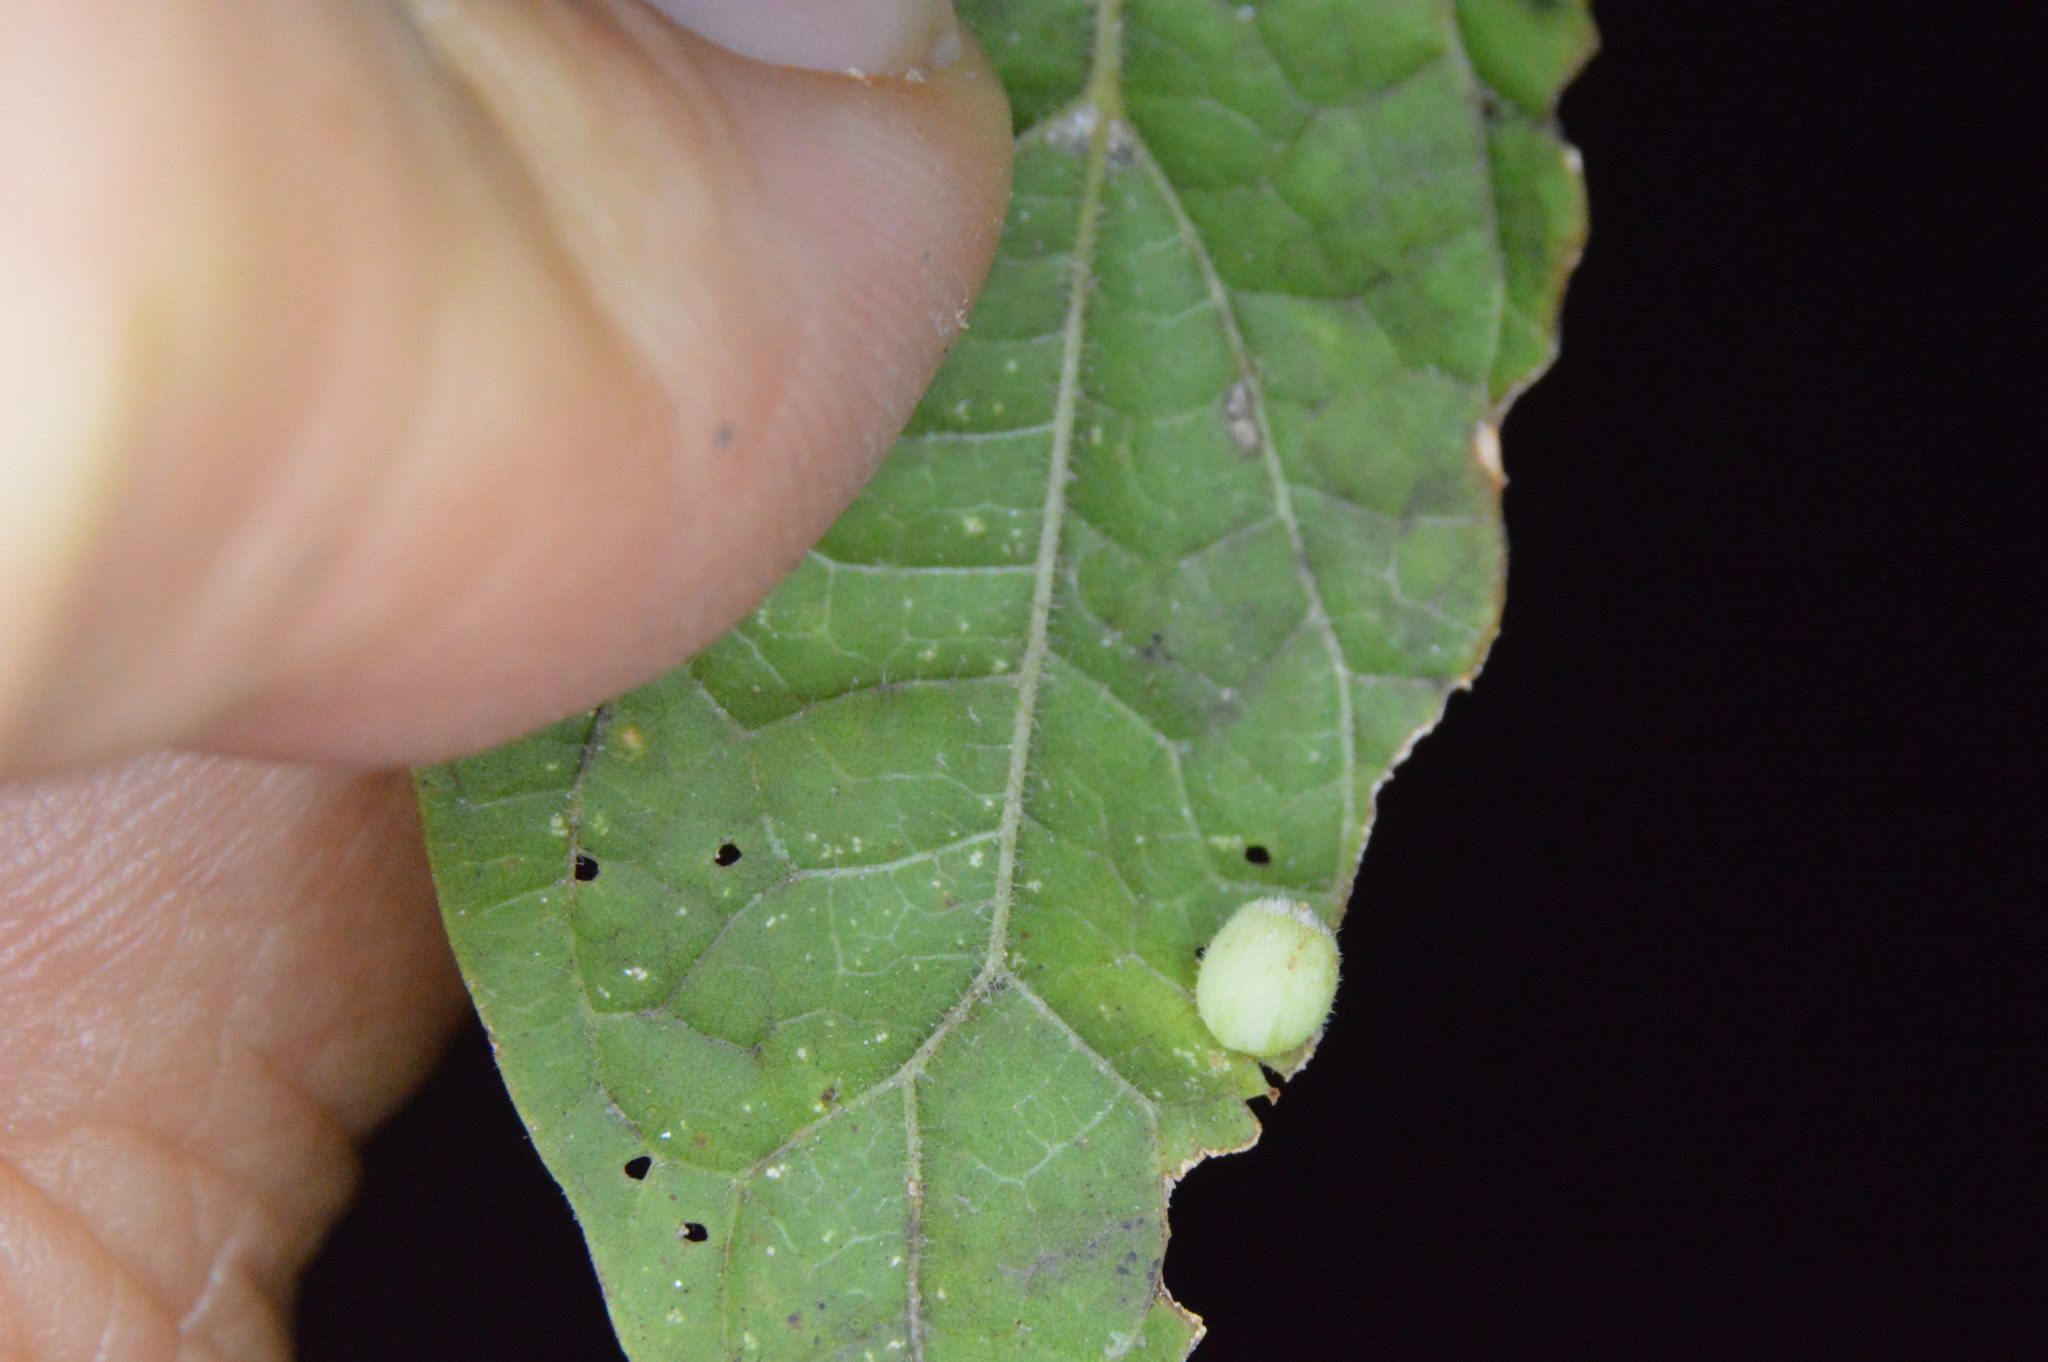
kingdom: Animalia
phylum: Arthropoda
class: Insecta
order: Diptera
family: Cecidomyiidae
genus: Celticecis
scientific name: Celticecis globosa
